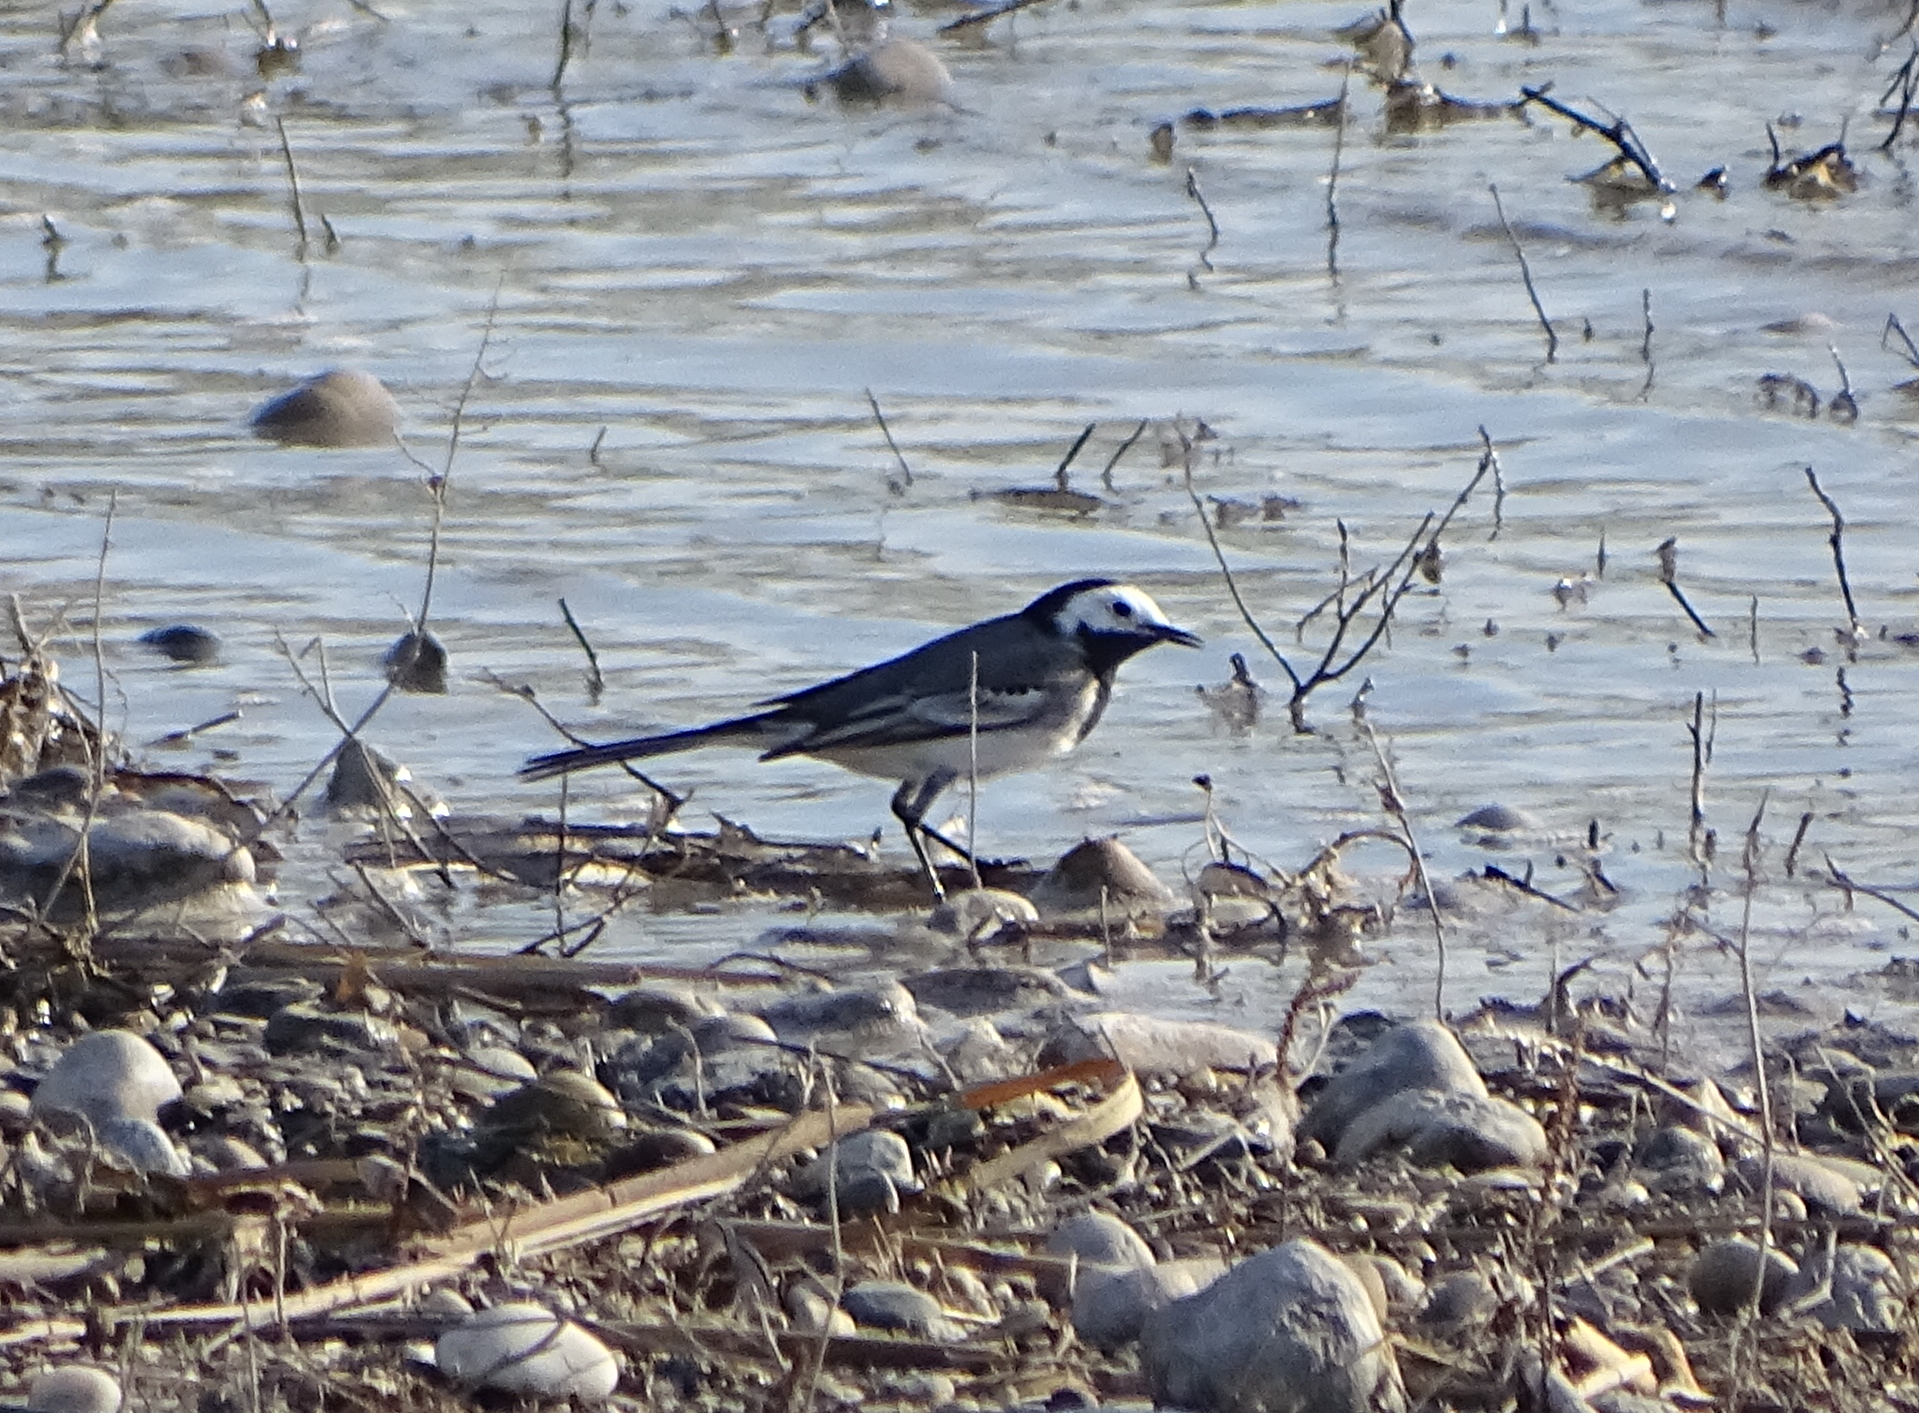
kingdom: Animalia
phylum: Chordata
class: Aves
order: Passeriformes
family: Motacillidae
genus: Motacilla
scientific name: Motacilla alba
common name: White wagtail
